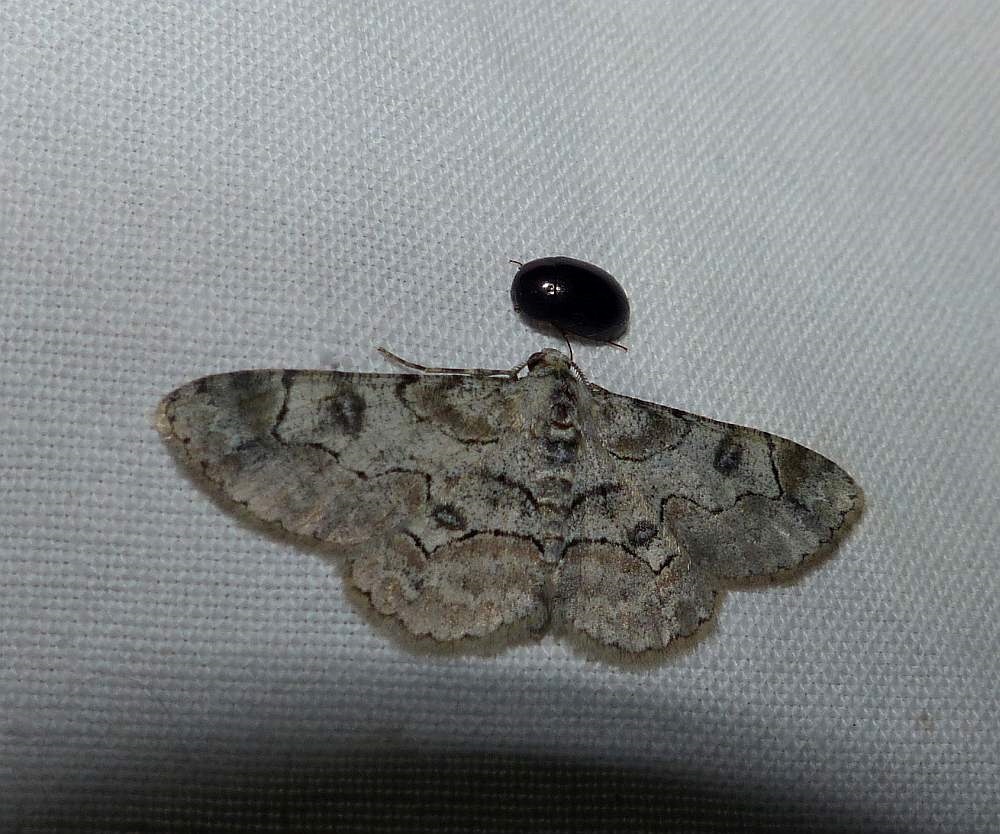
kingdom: Animalia
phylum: Arthropoda
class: Insecta
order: Lepidoptera
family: Geometridae
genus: Iridopsis
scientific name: Iridopsis larvaria
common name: Bent-line gray
